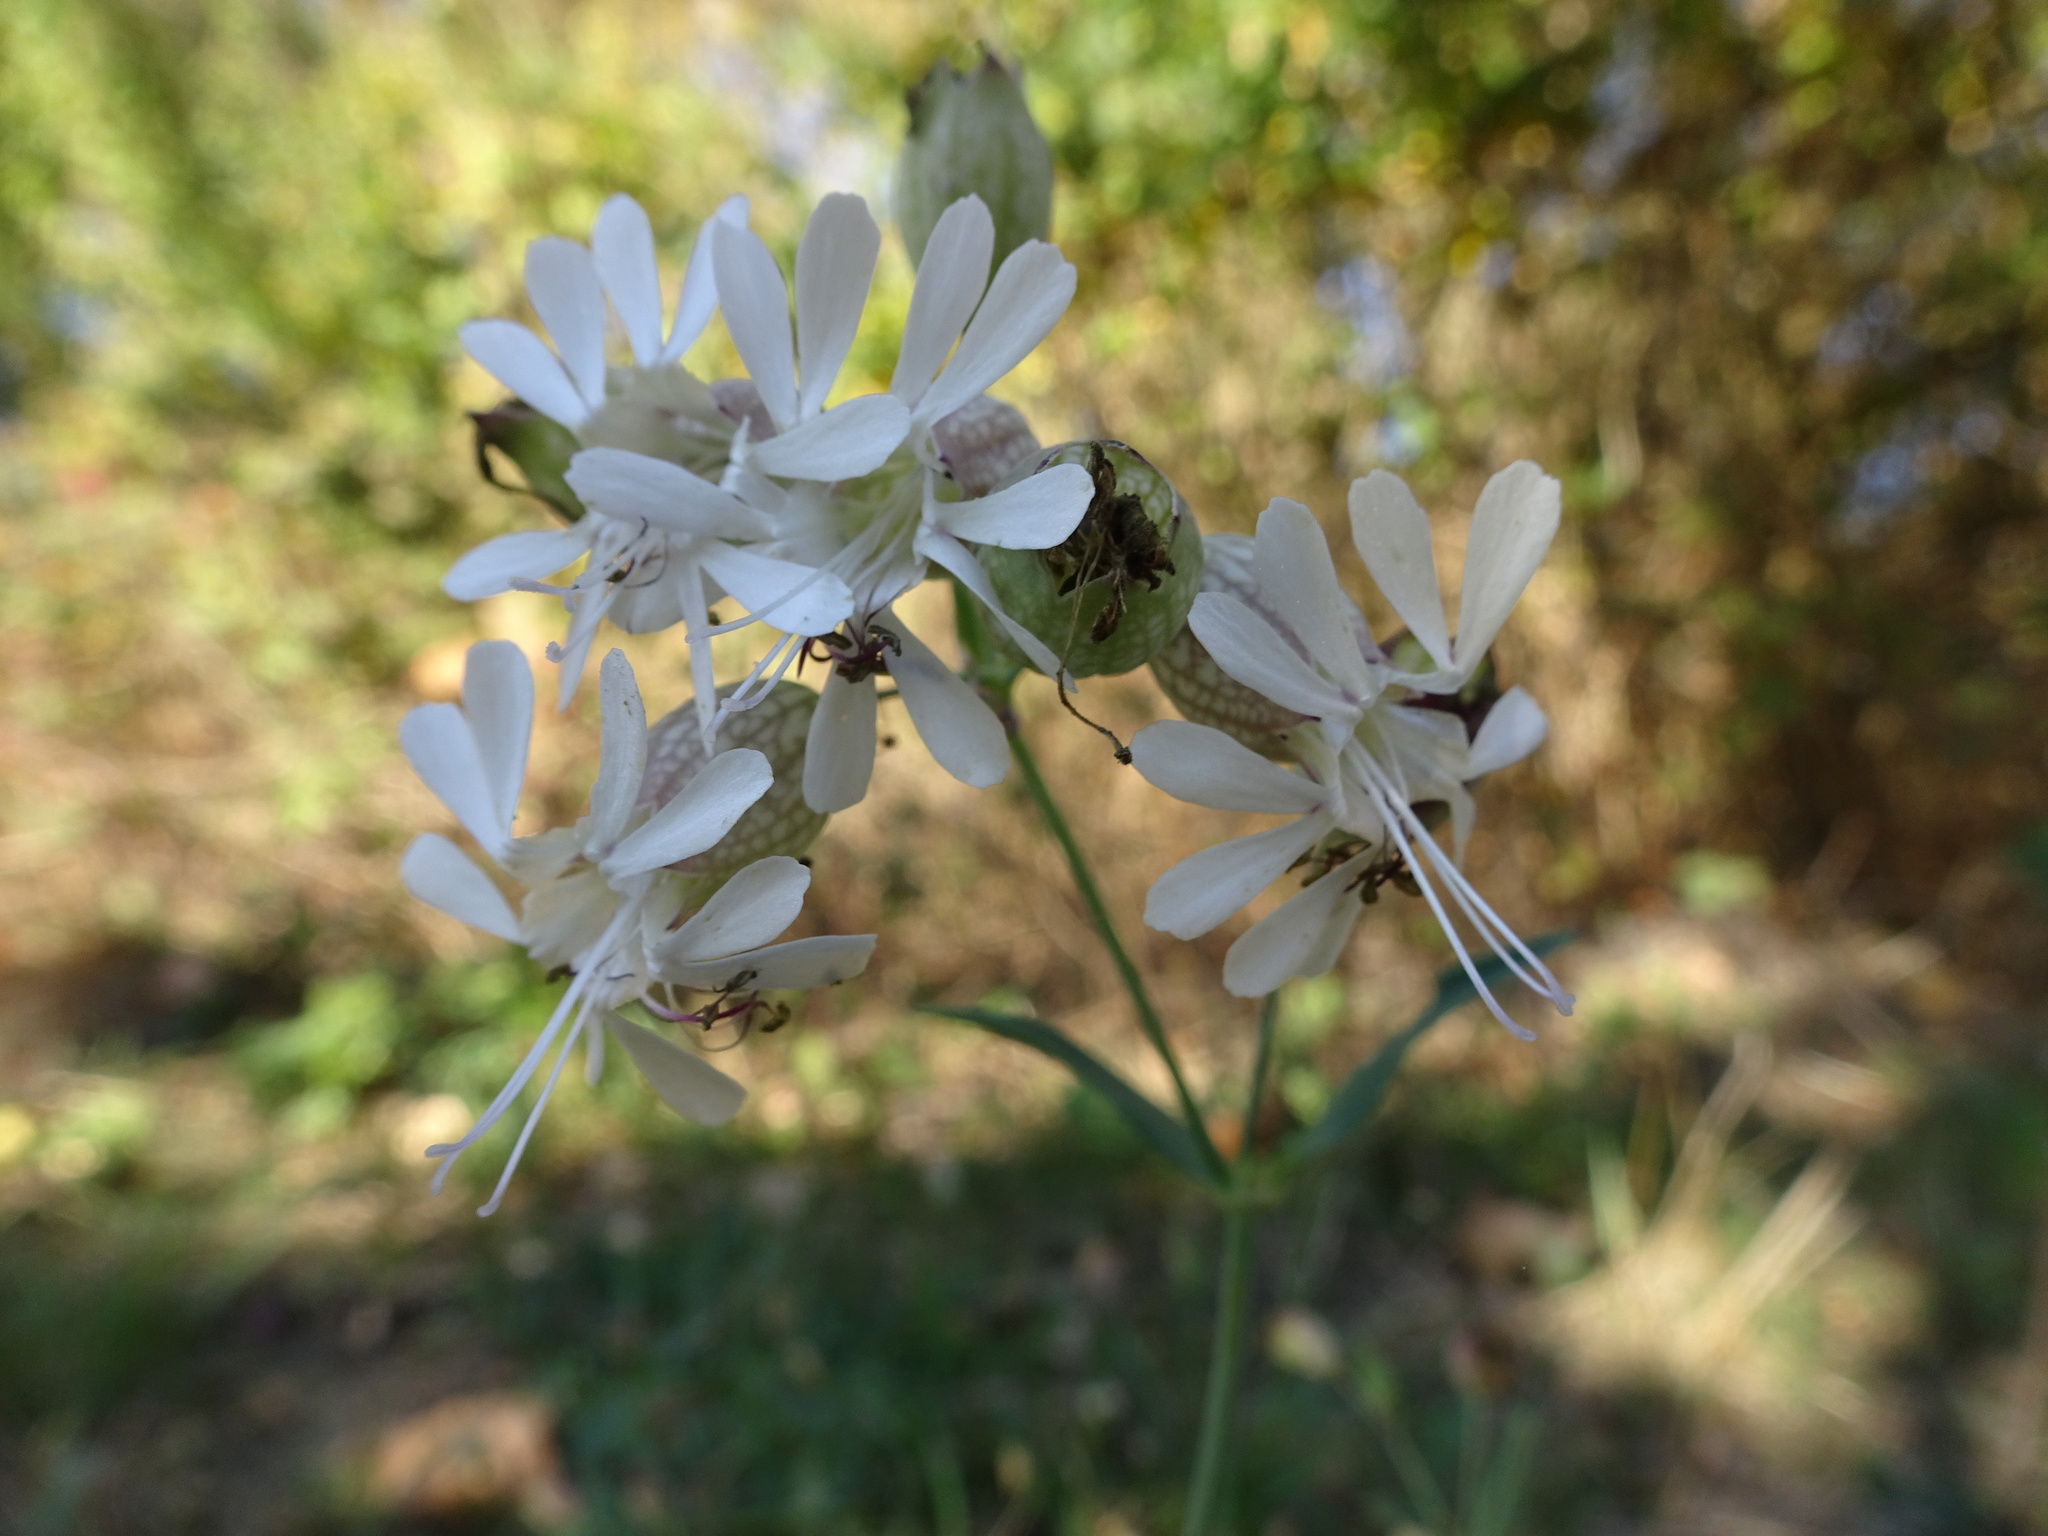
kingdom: Plantae
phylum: Tracheophyta
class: Magnoliopsida
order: Caryophyllales
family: Caryophyllaceae
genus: Silene
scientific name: Silene vulgaris
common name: Bladder campion
